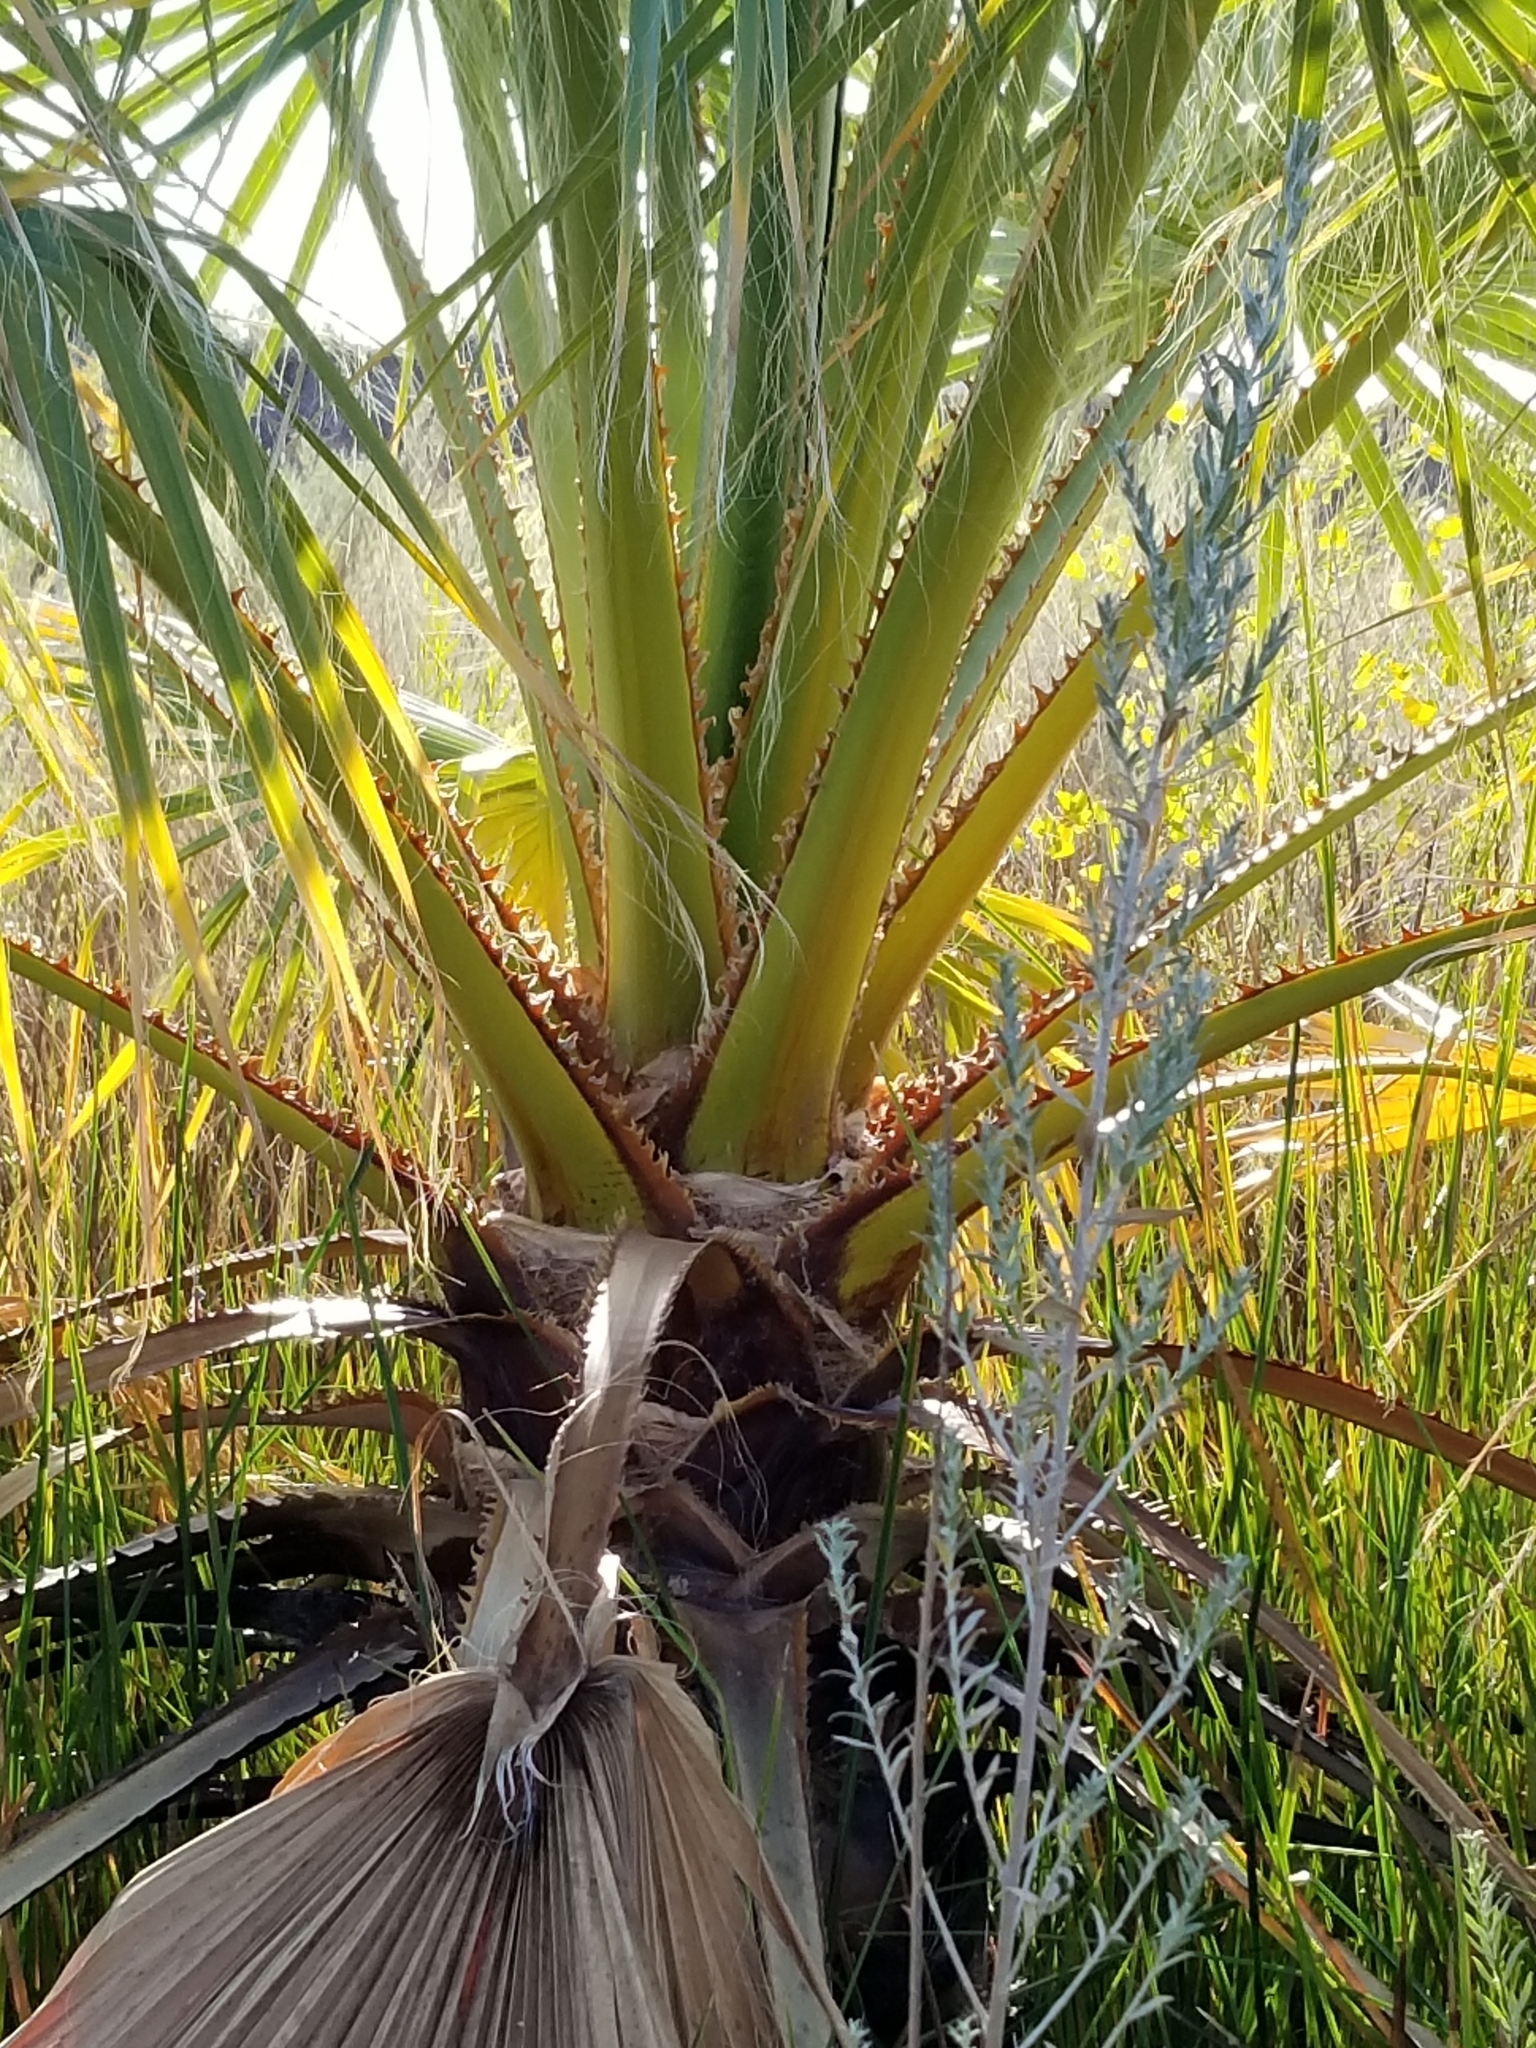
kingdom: Plantae
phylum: Tracheophyta
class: Liliopsida
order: Arecales
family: Arecaceae
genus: Washingtonia
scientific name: Washingtonia filifera
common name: California fan palm
